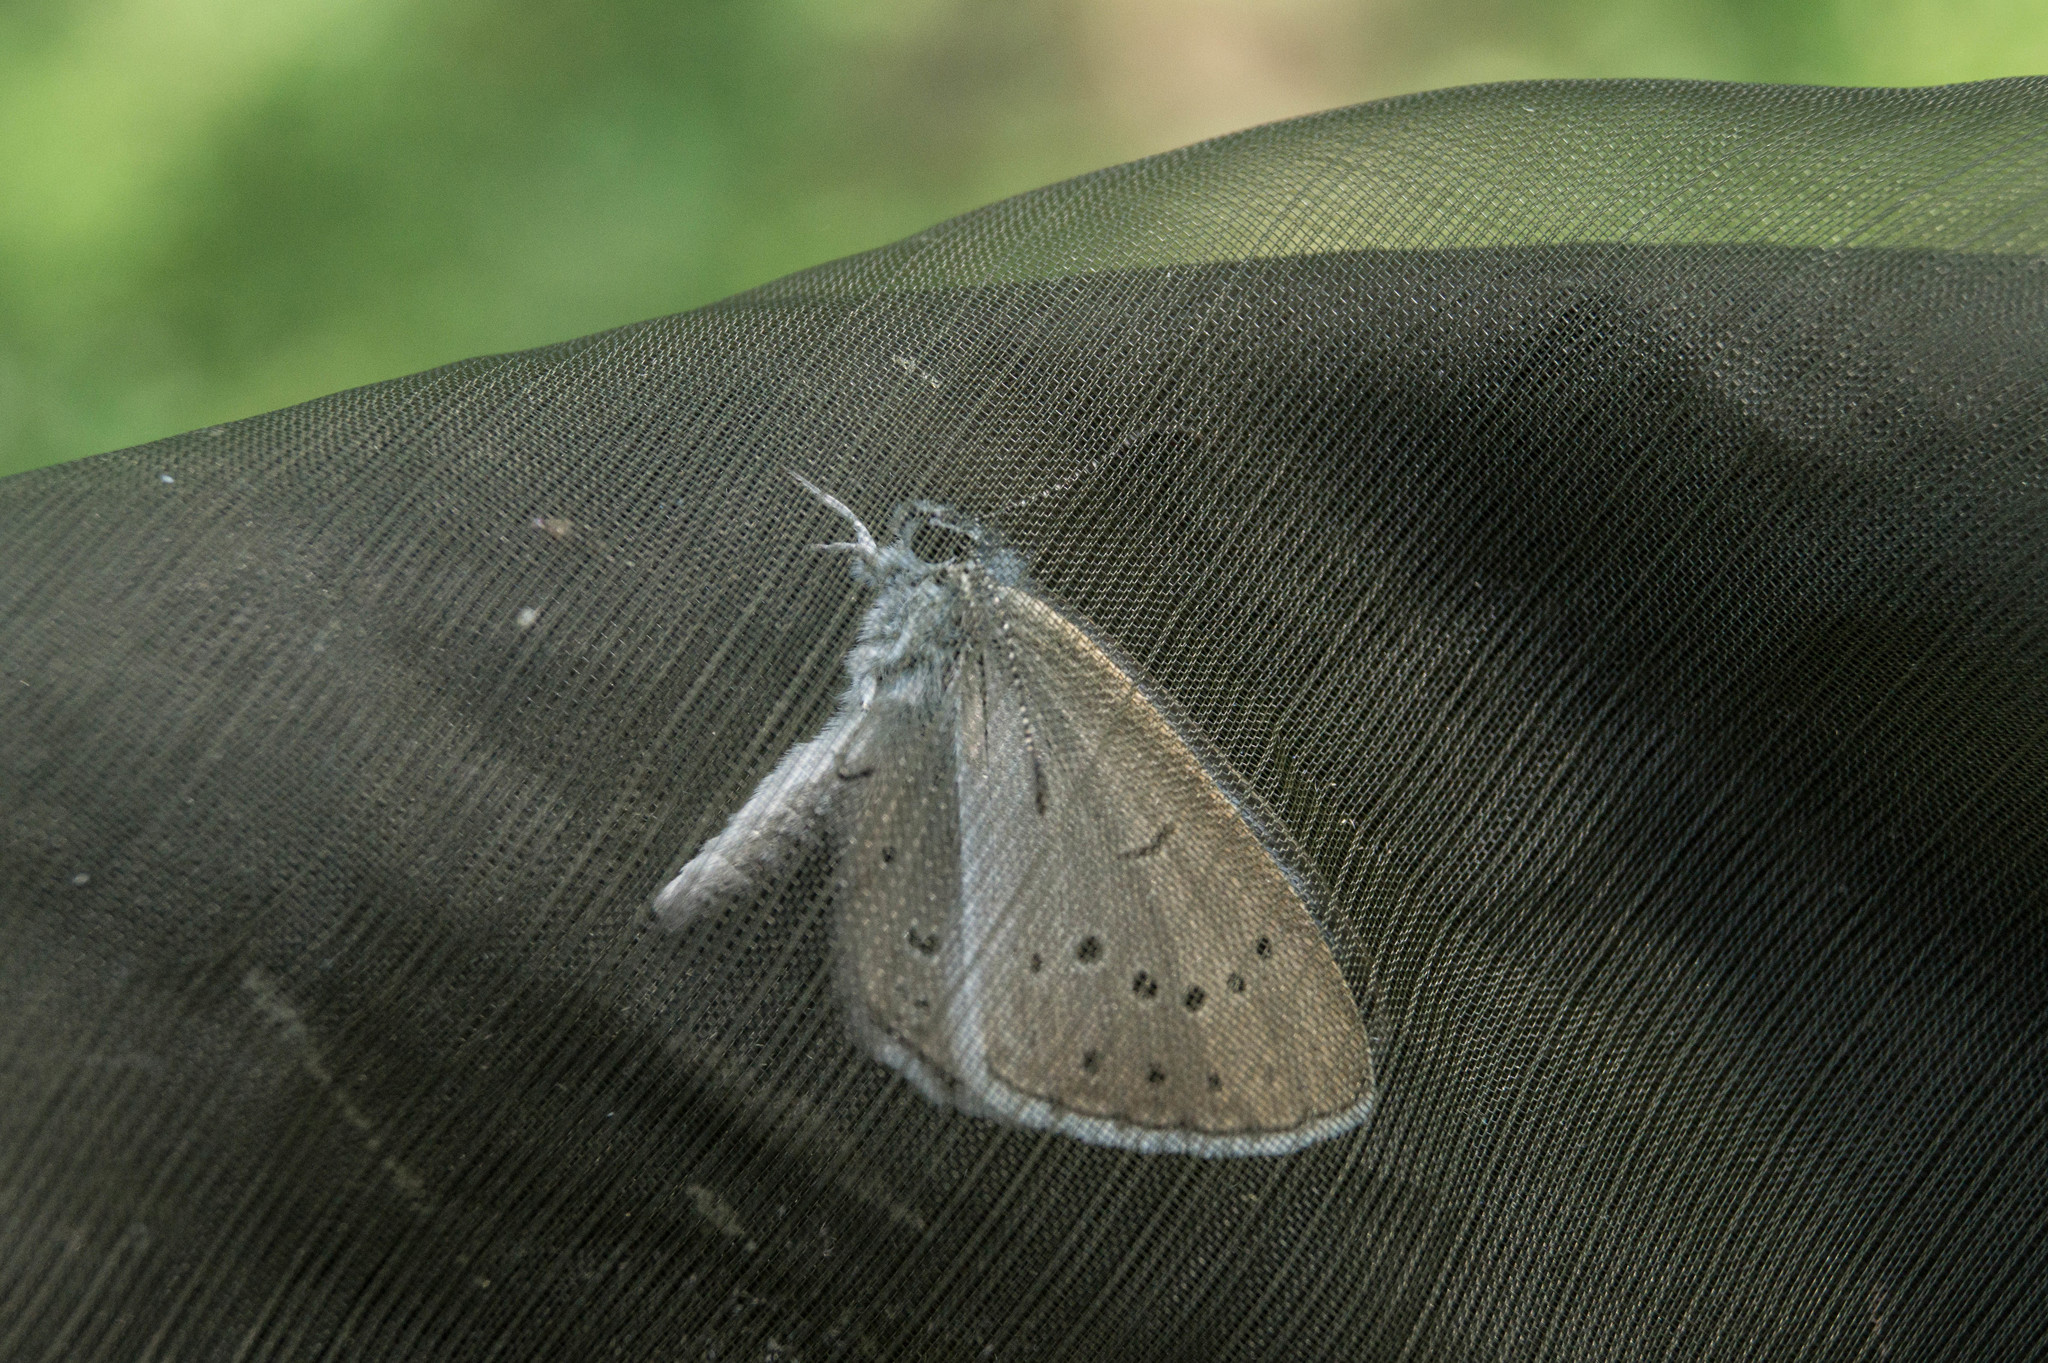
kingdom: Animalia
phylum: Arthropoda
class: Insecta
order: Lepidoptera
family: Lycaenidae
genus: Phengaris
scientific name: Phengaris teleius
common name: Scarce large blue
